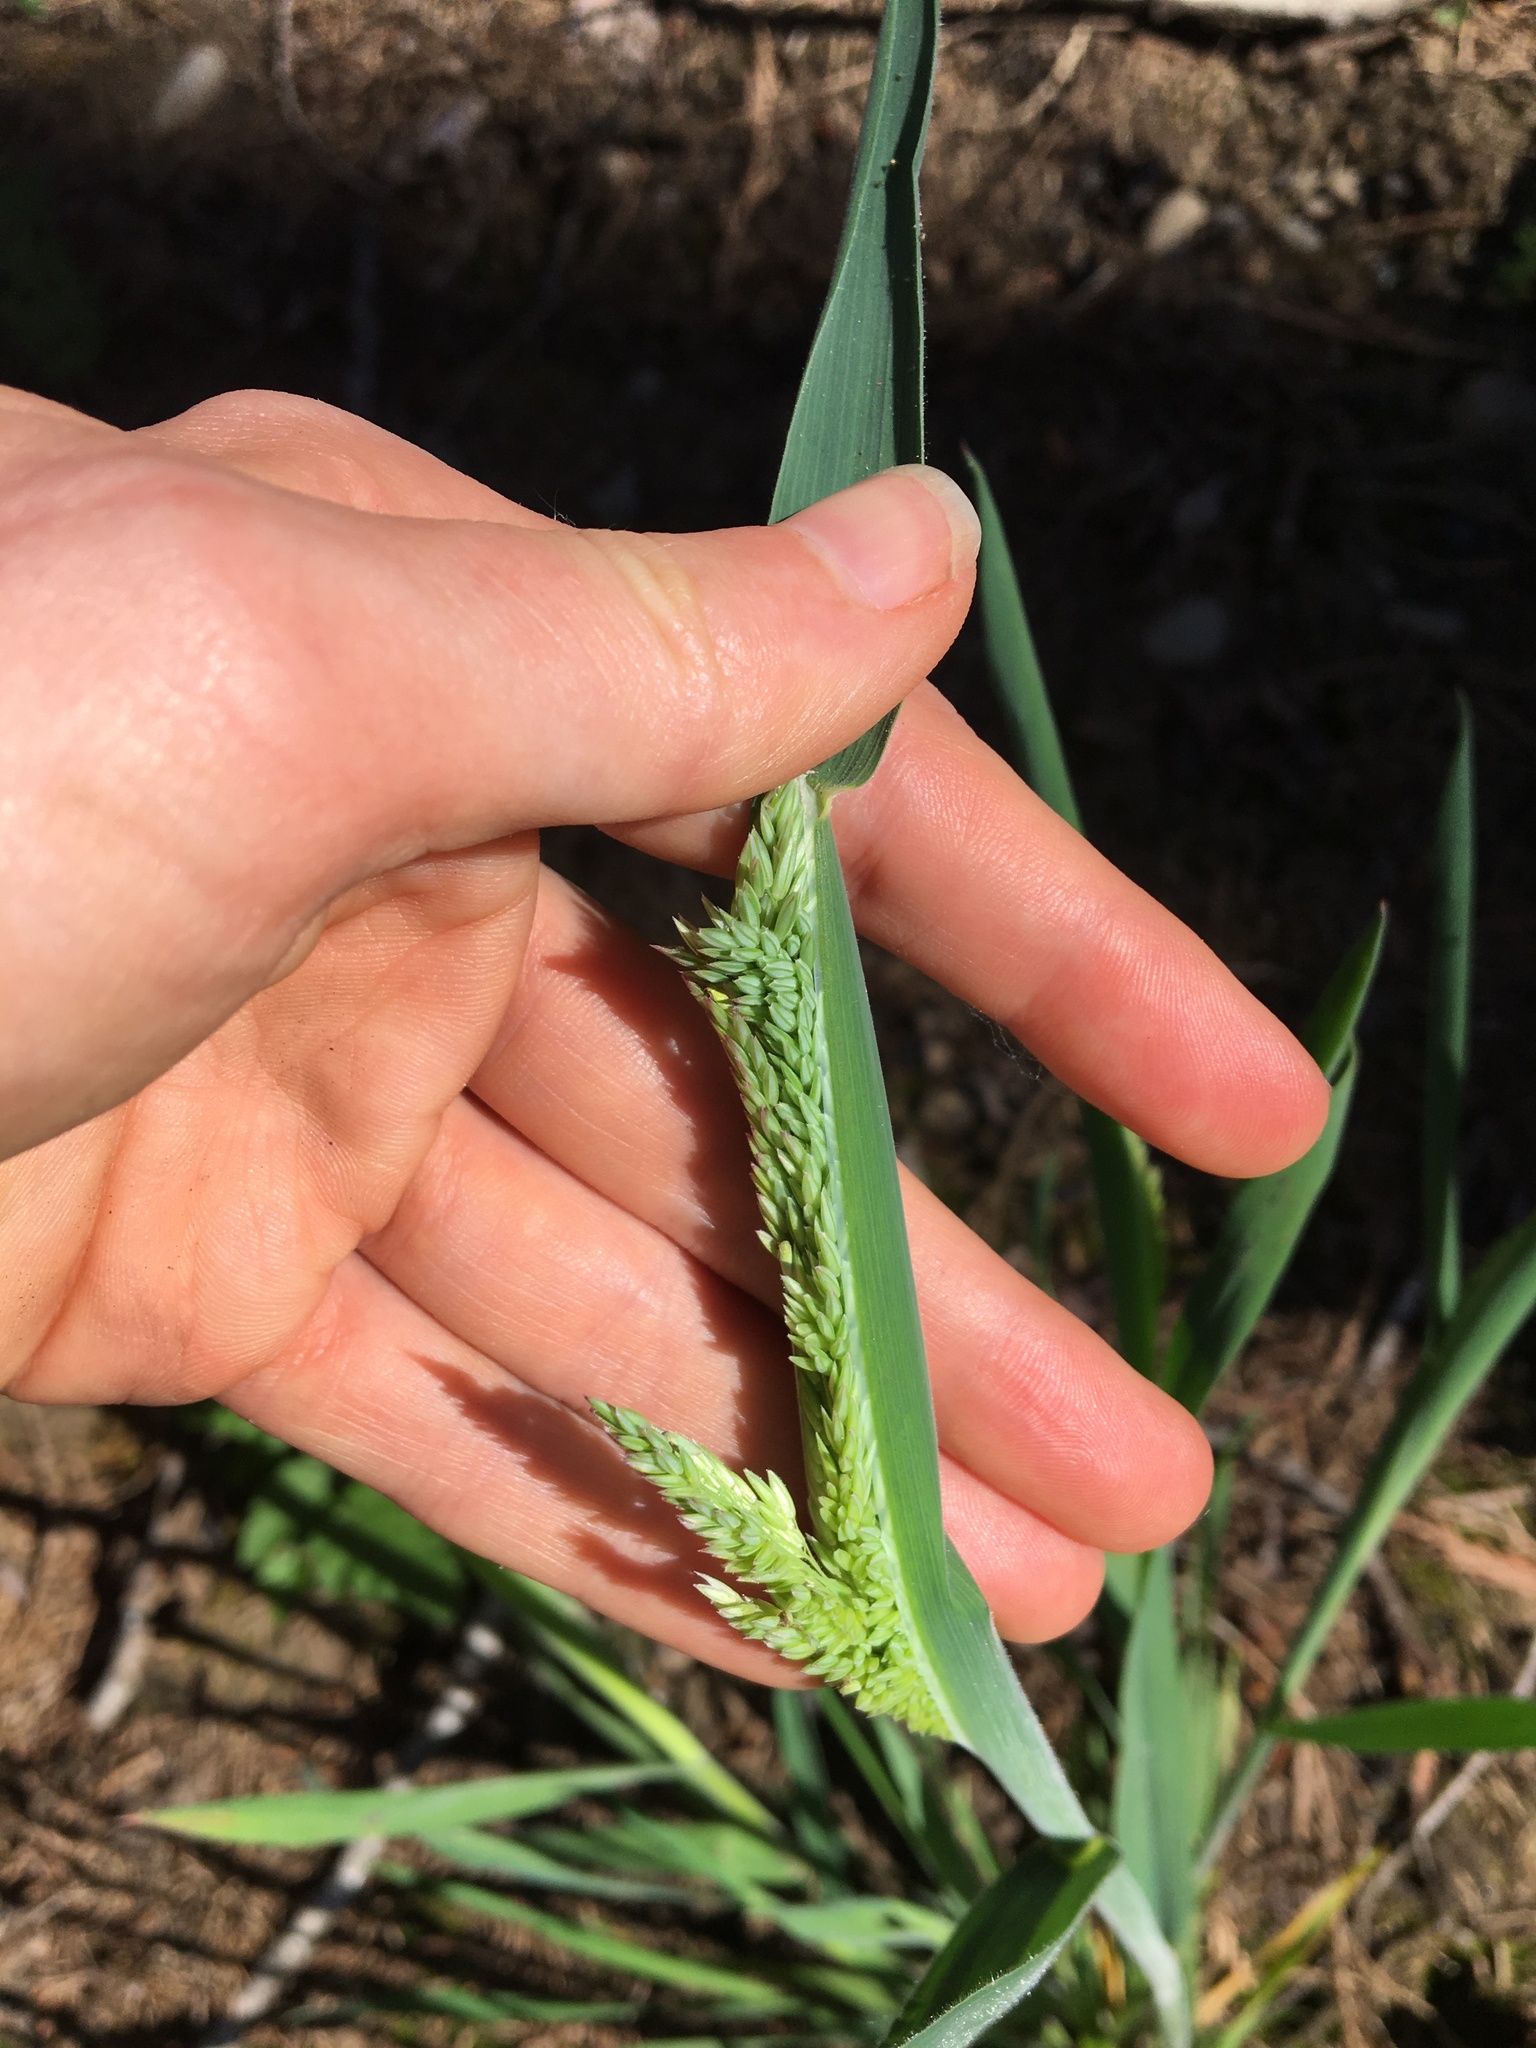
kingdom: Plantae
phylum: Tracheophyta
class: Liliopsida
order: Poales
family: Poaceae
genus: Holcus
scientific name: Holcus lanatus
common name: Yorkshire-fog
